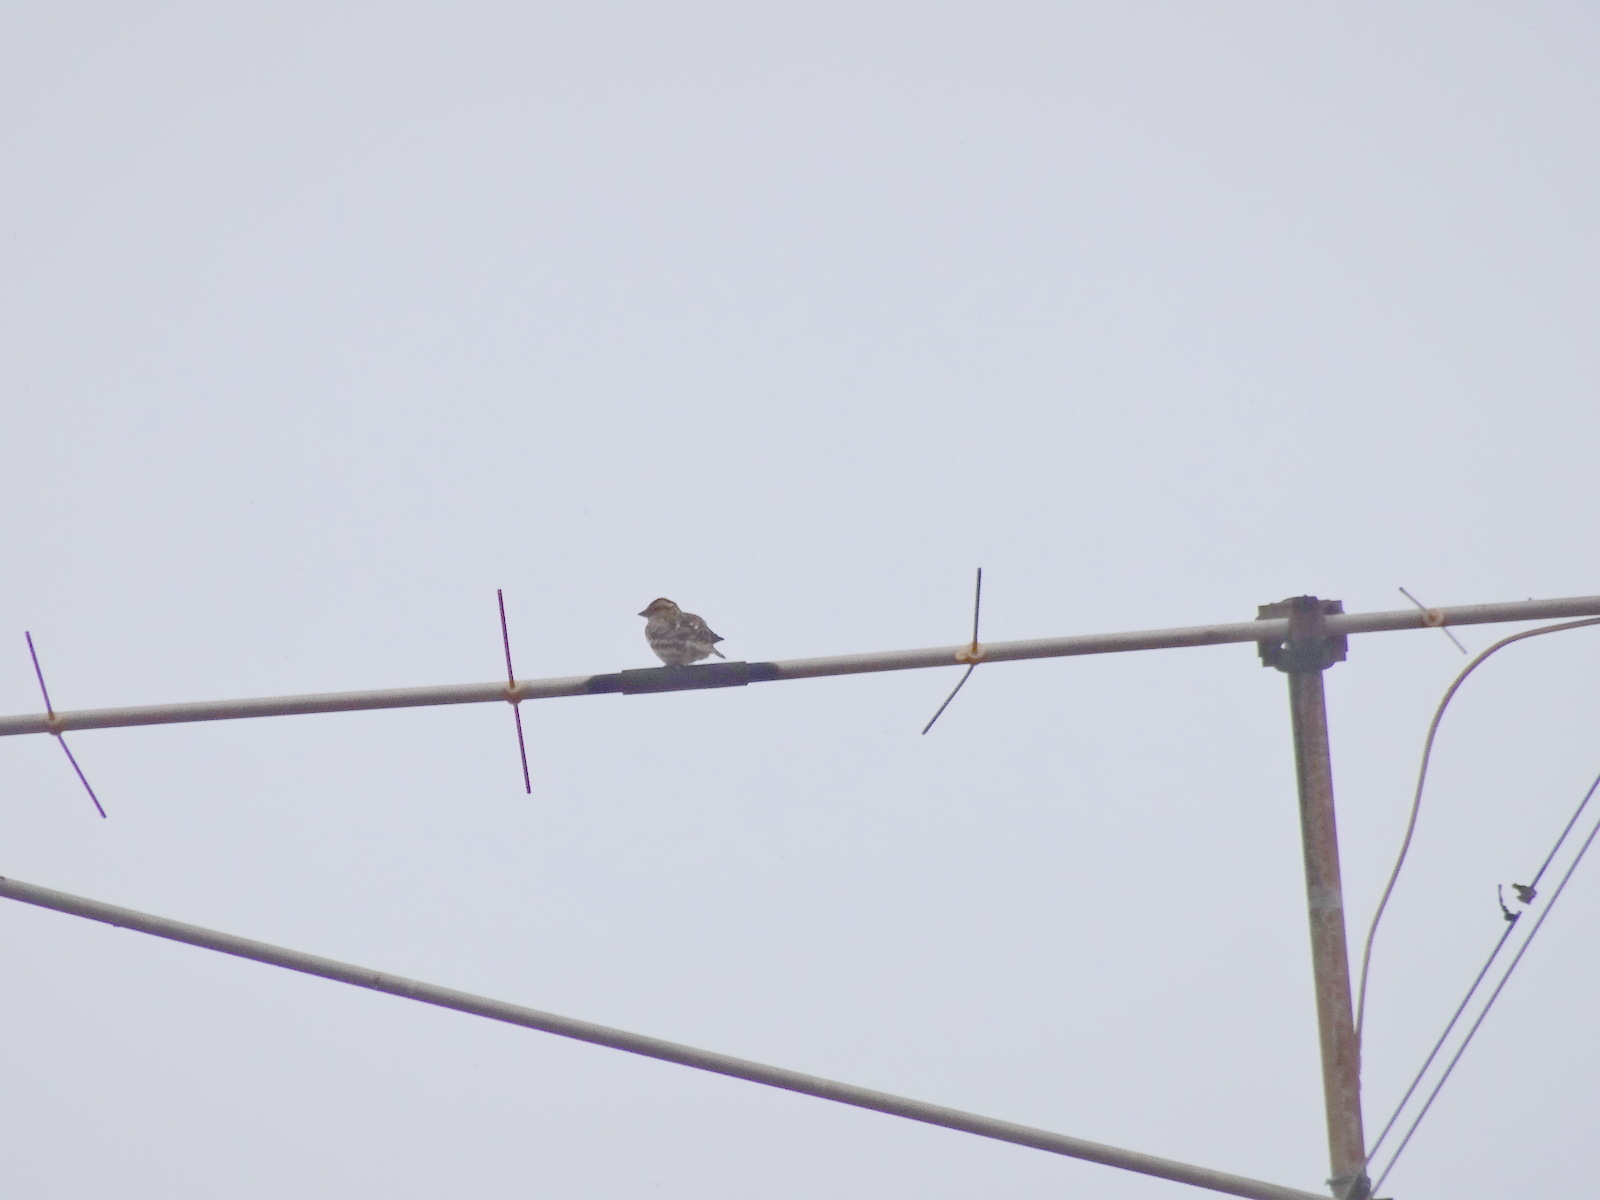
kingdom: Animalia
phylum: Chordata
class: Aves
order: Passeriformes
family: Passeridae
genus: Petronia
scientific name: Petronia petronia
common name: Rock sparrow
